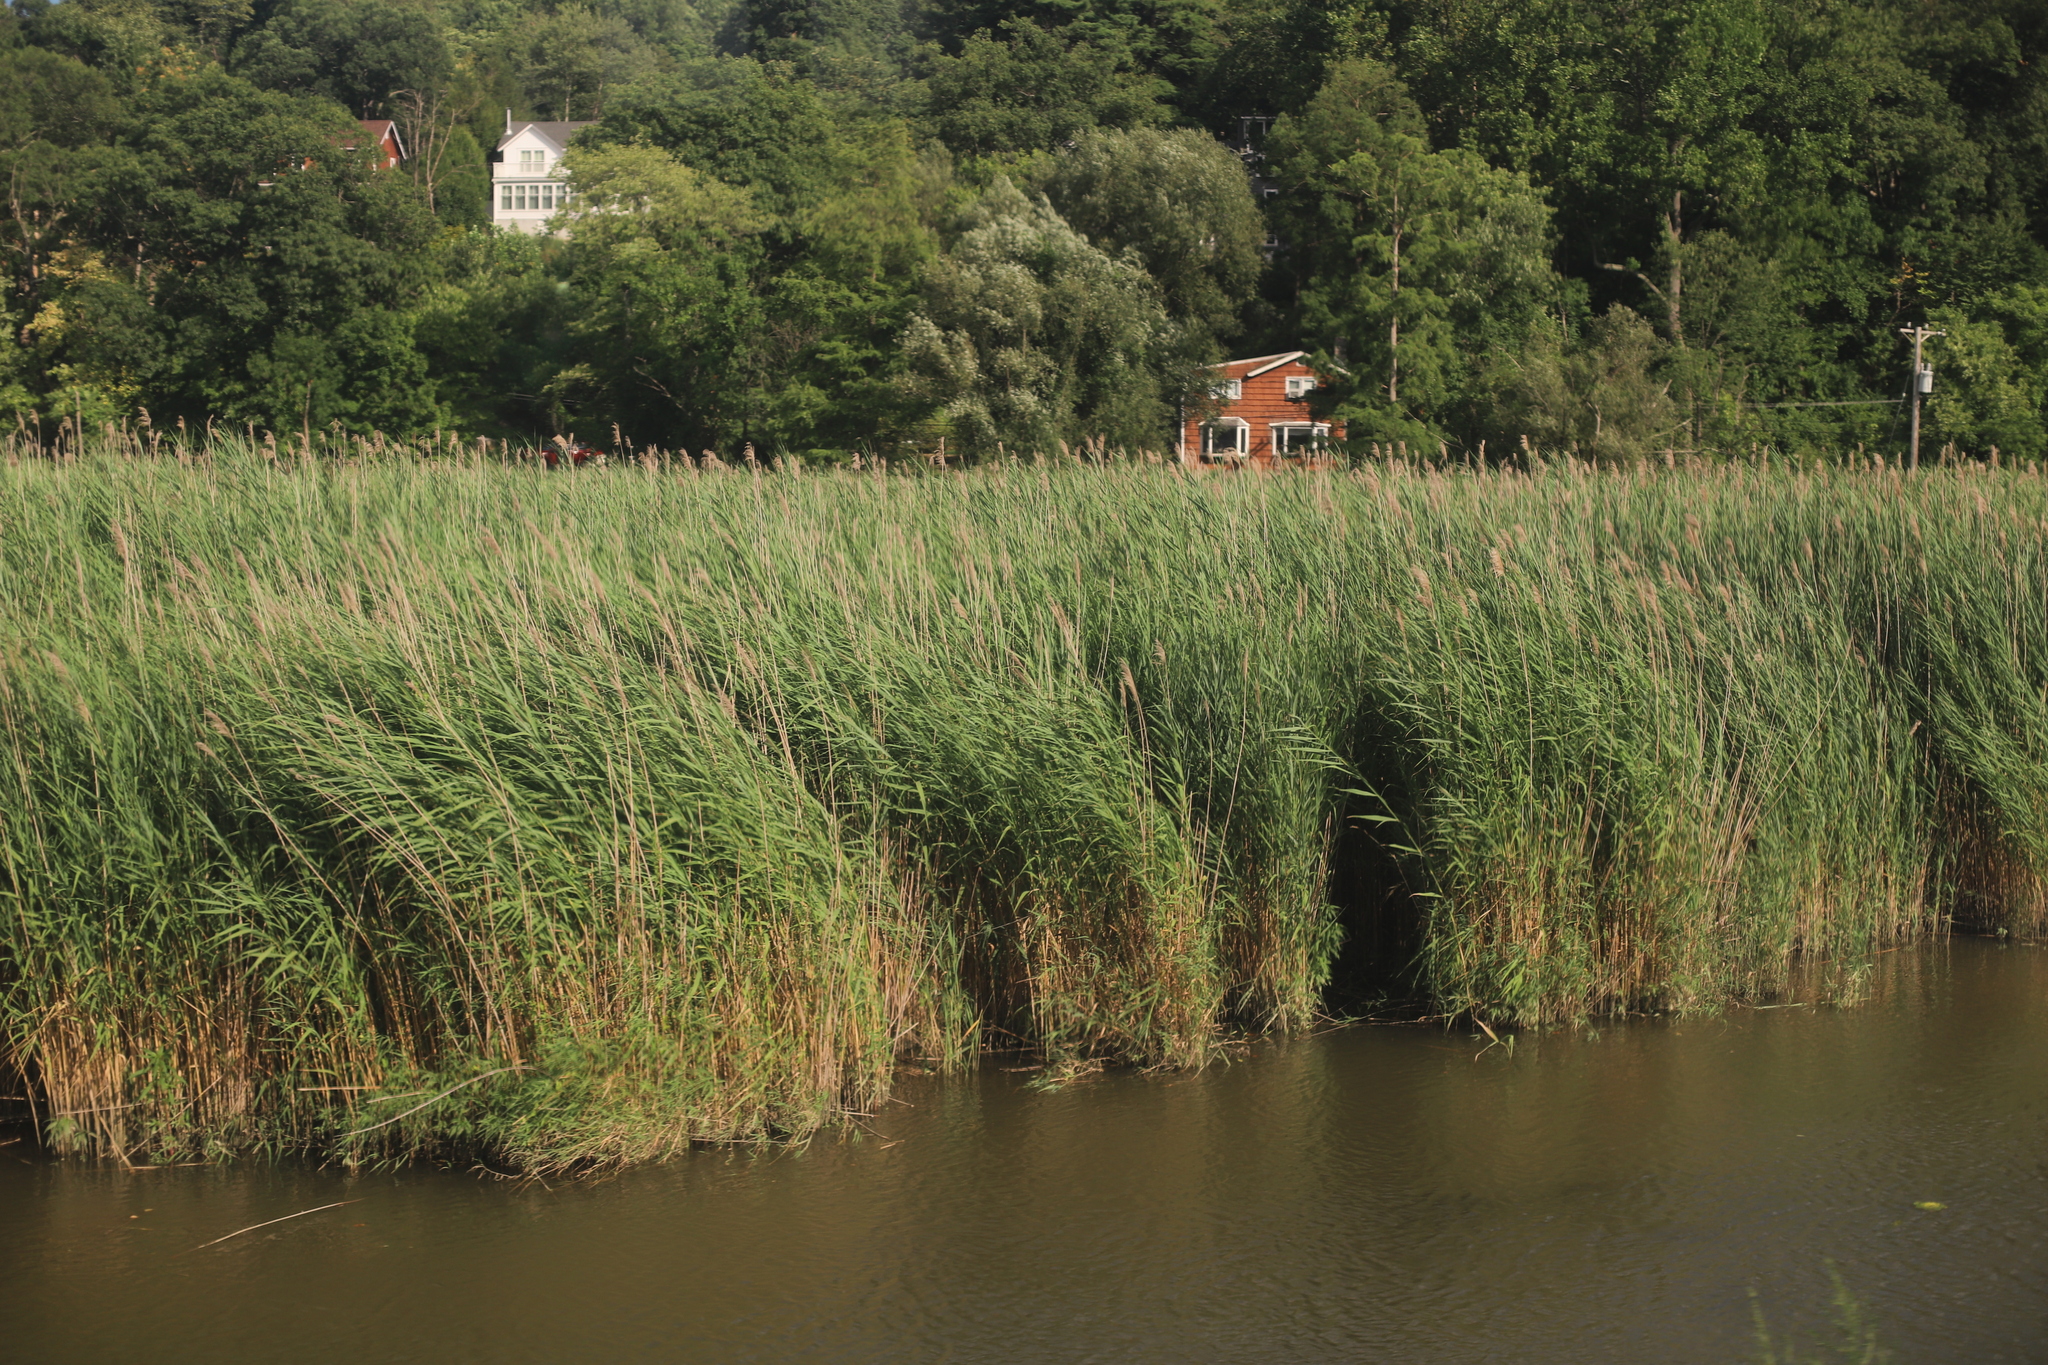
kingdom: Plantae
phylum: Tracheophyta
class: Liliopsida
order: Poales
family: Poaceae
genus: Phragmites
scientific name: Phragmites australis
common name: Common reed
